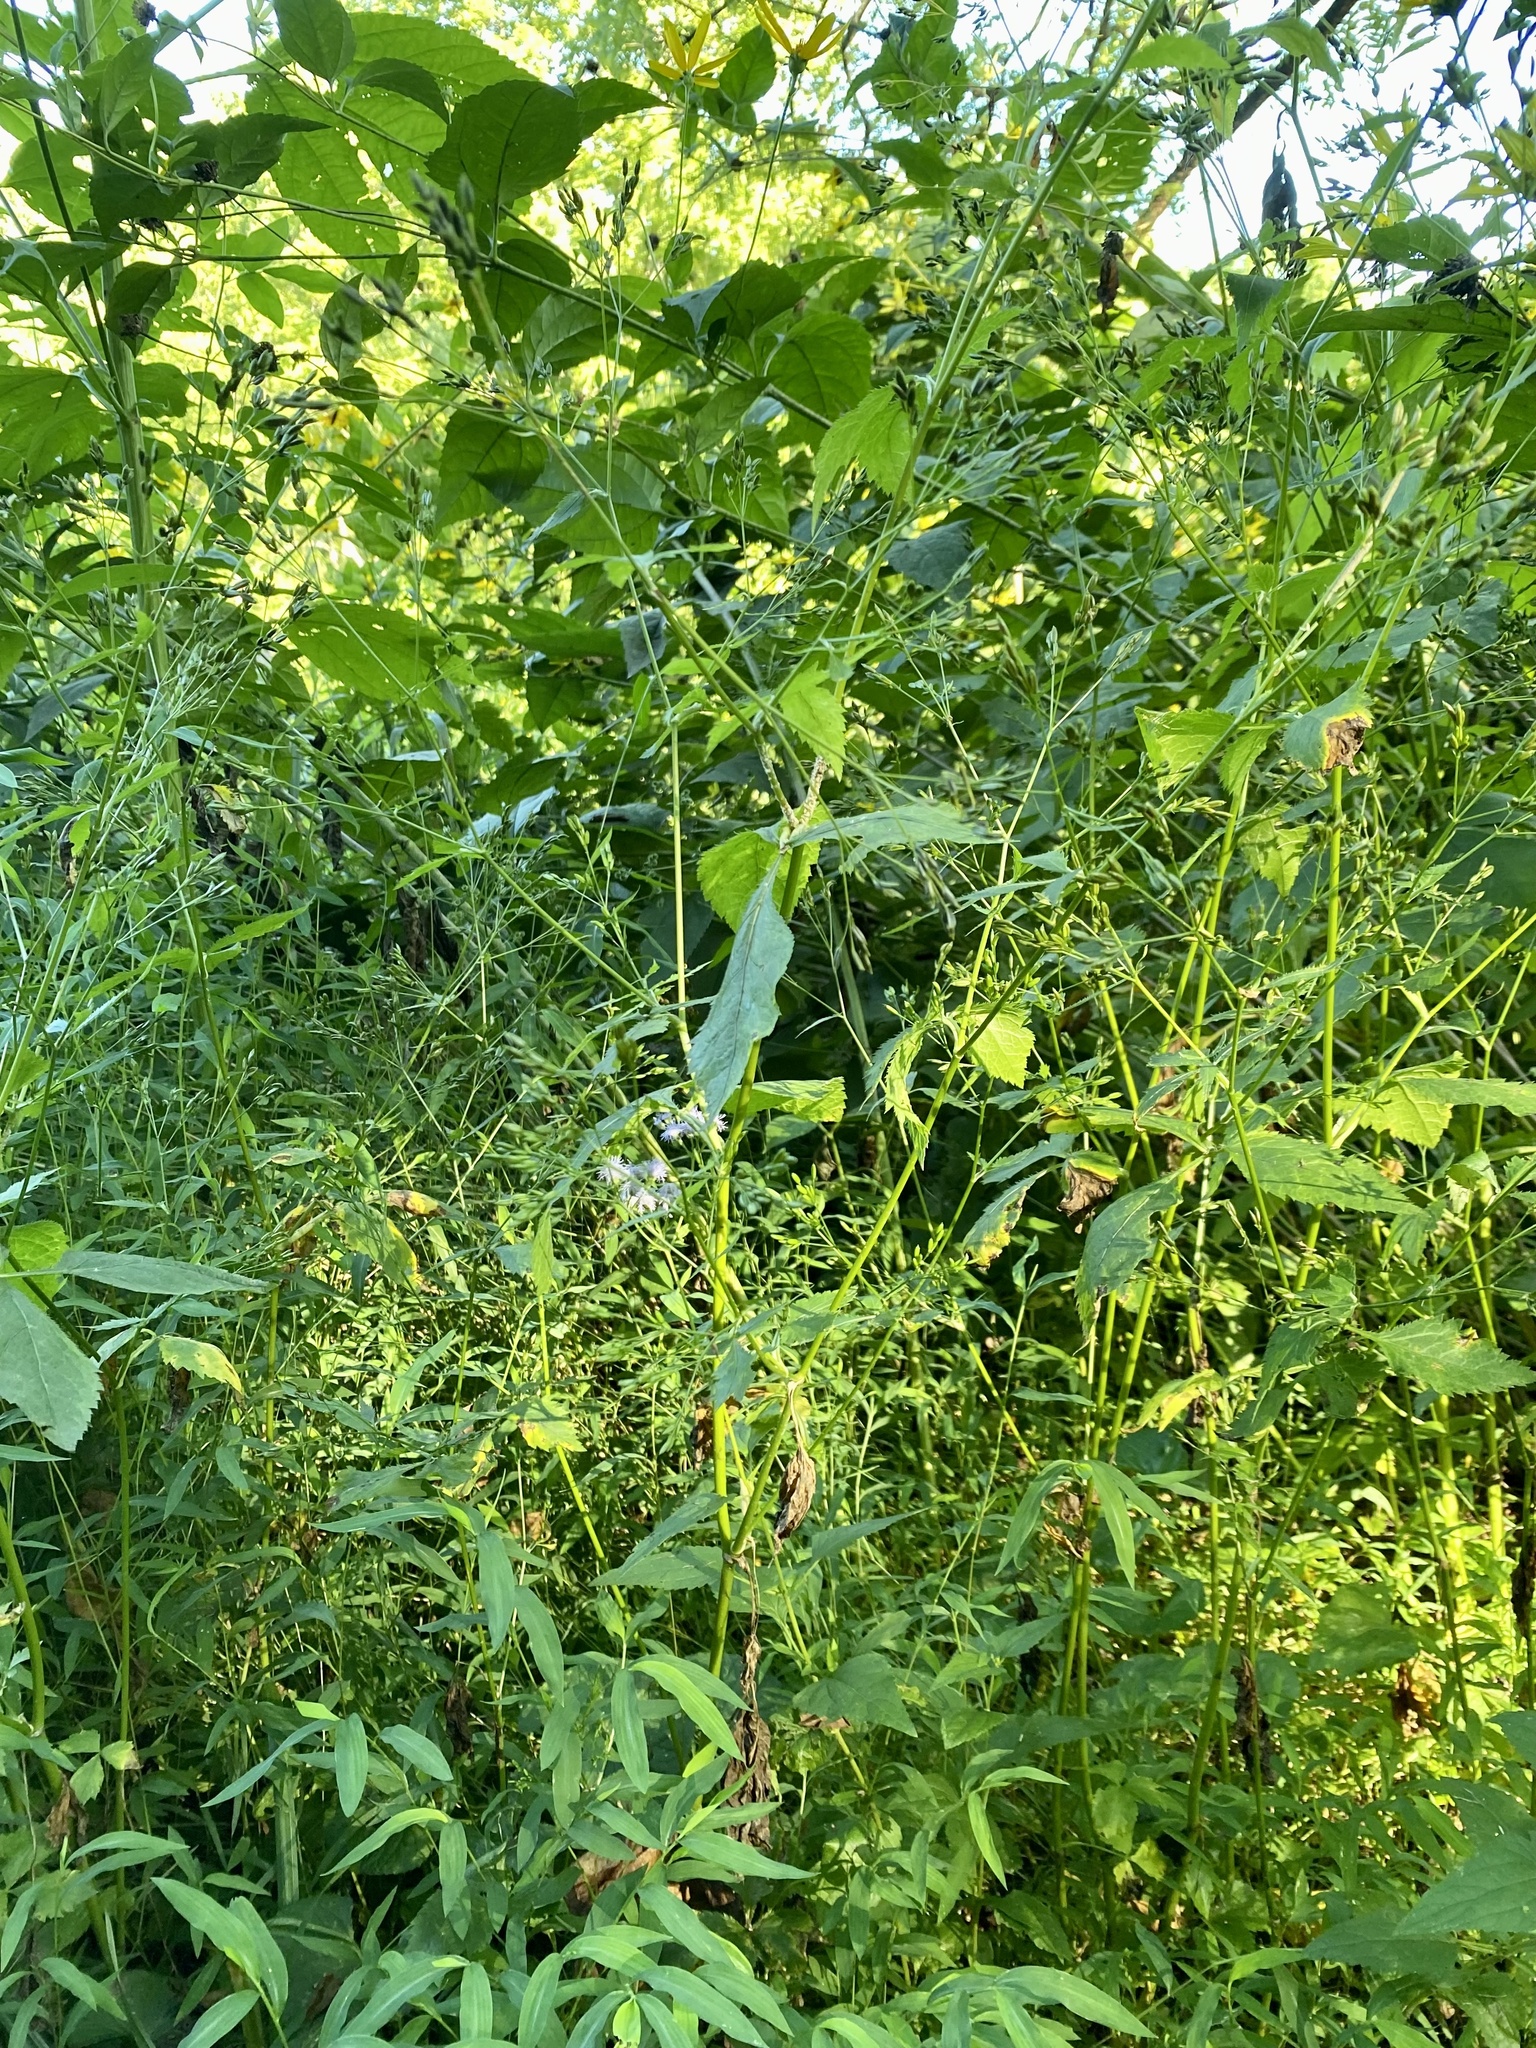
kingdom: Plantae
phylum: Tracheophyta
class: Magnoliopsida
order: Apiales
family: Apiaceae
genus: Cryptotaenia
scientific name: Cryptotaenia canadensis
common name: Honewort
